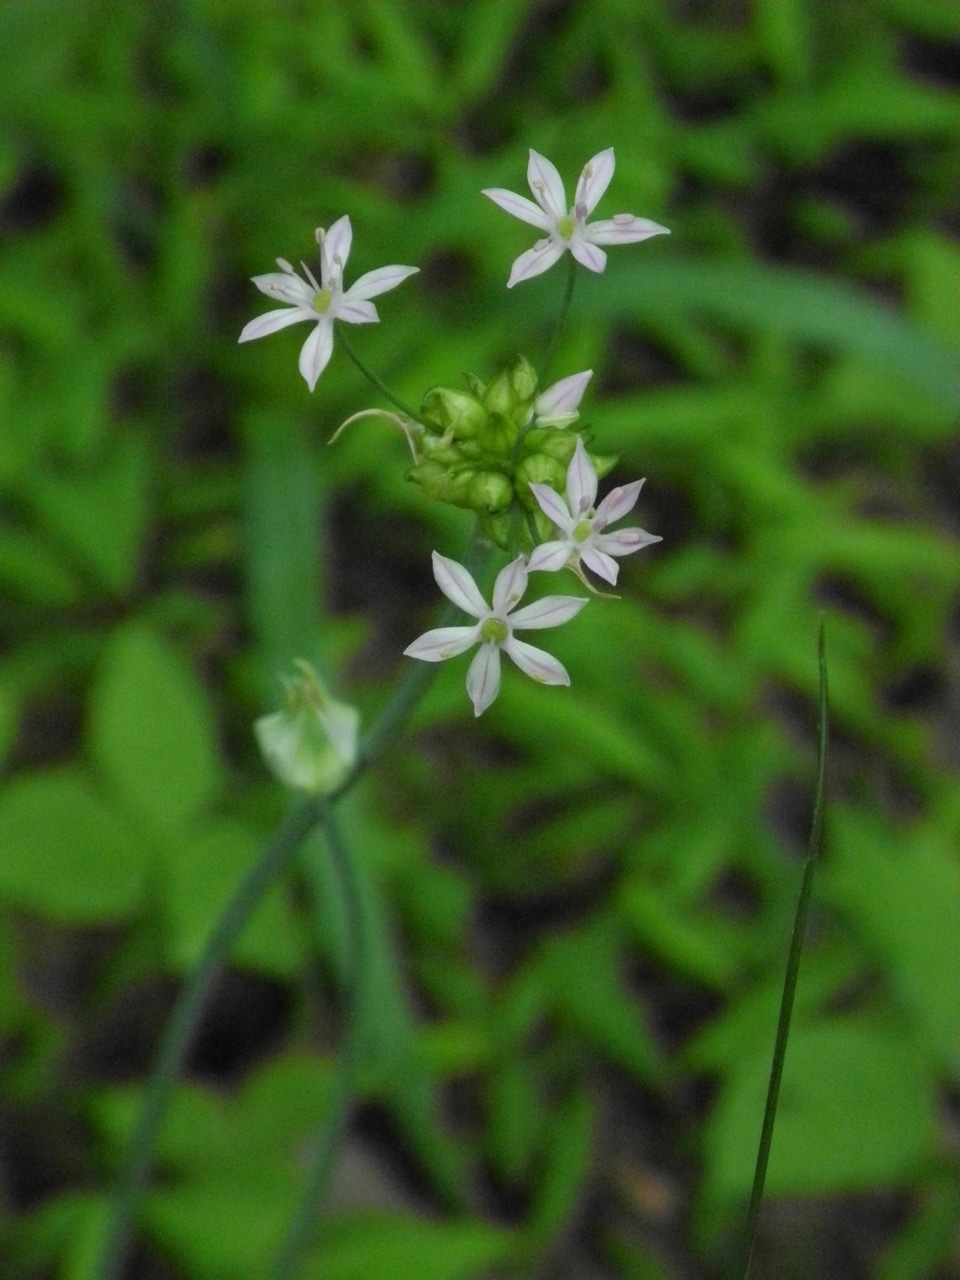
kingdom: Plantae
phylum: Tracheophyta
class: Liliopsida
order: Asparagales
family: Amaryllidaceae
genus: Allium
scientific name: Allium canadense
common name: Meadow garlic
